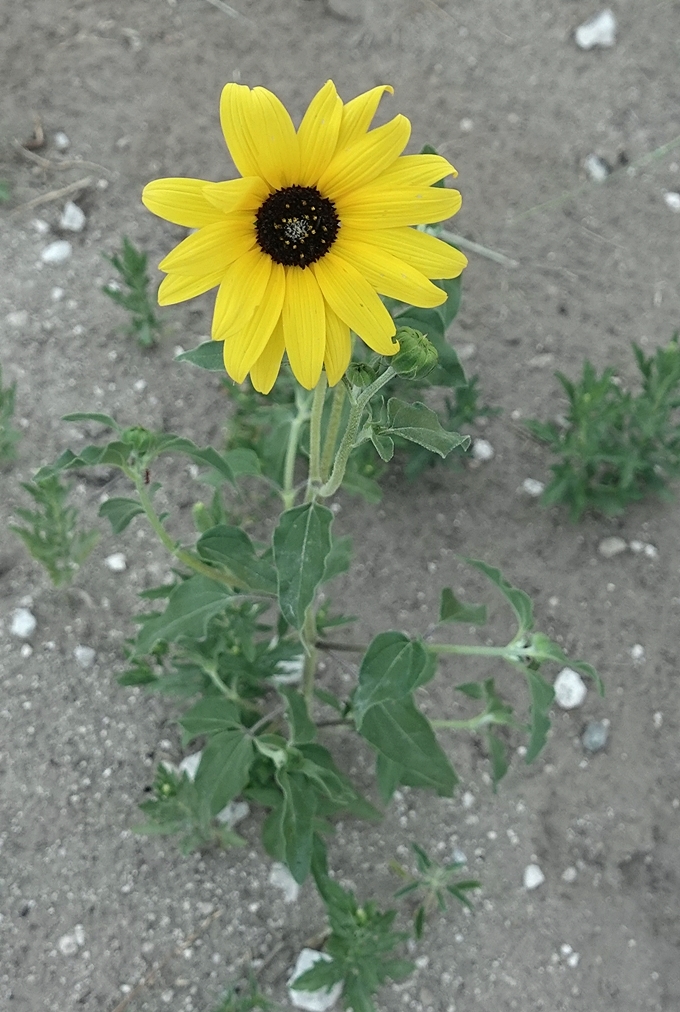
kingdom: Plantae
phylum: Tracheophyta
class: Magnoliopsida
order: Asterales
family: Asteraceae
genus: Helianthus
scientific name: Helianthus petiolaris
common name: Lesser sunflower
